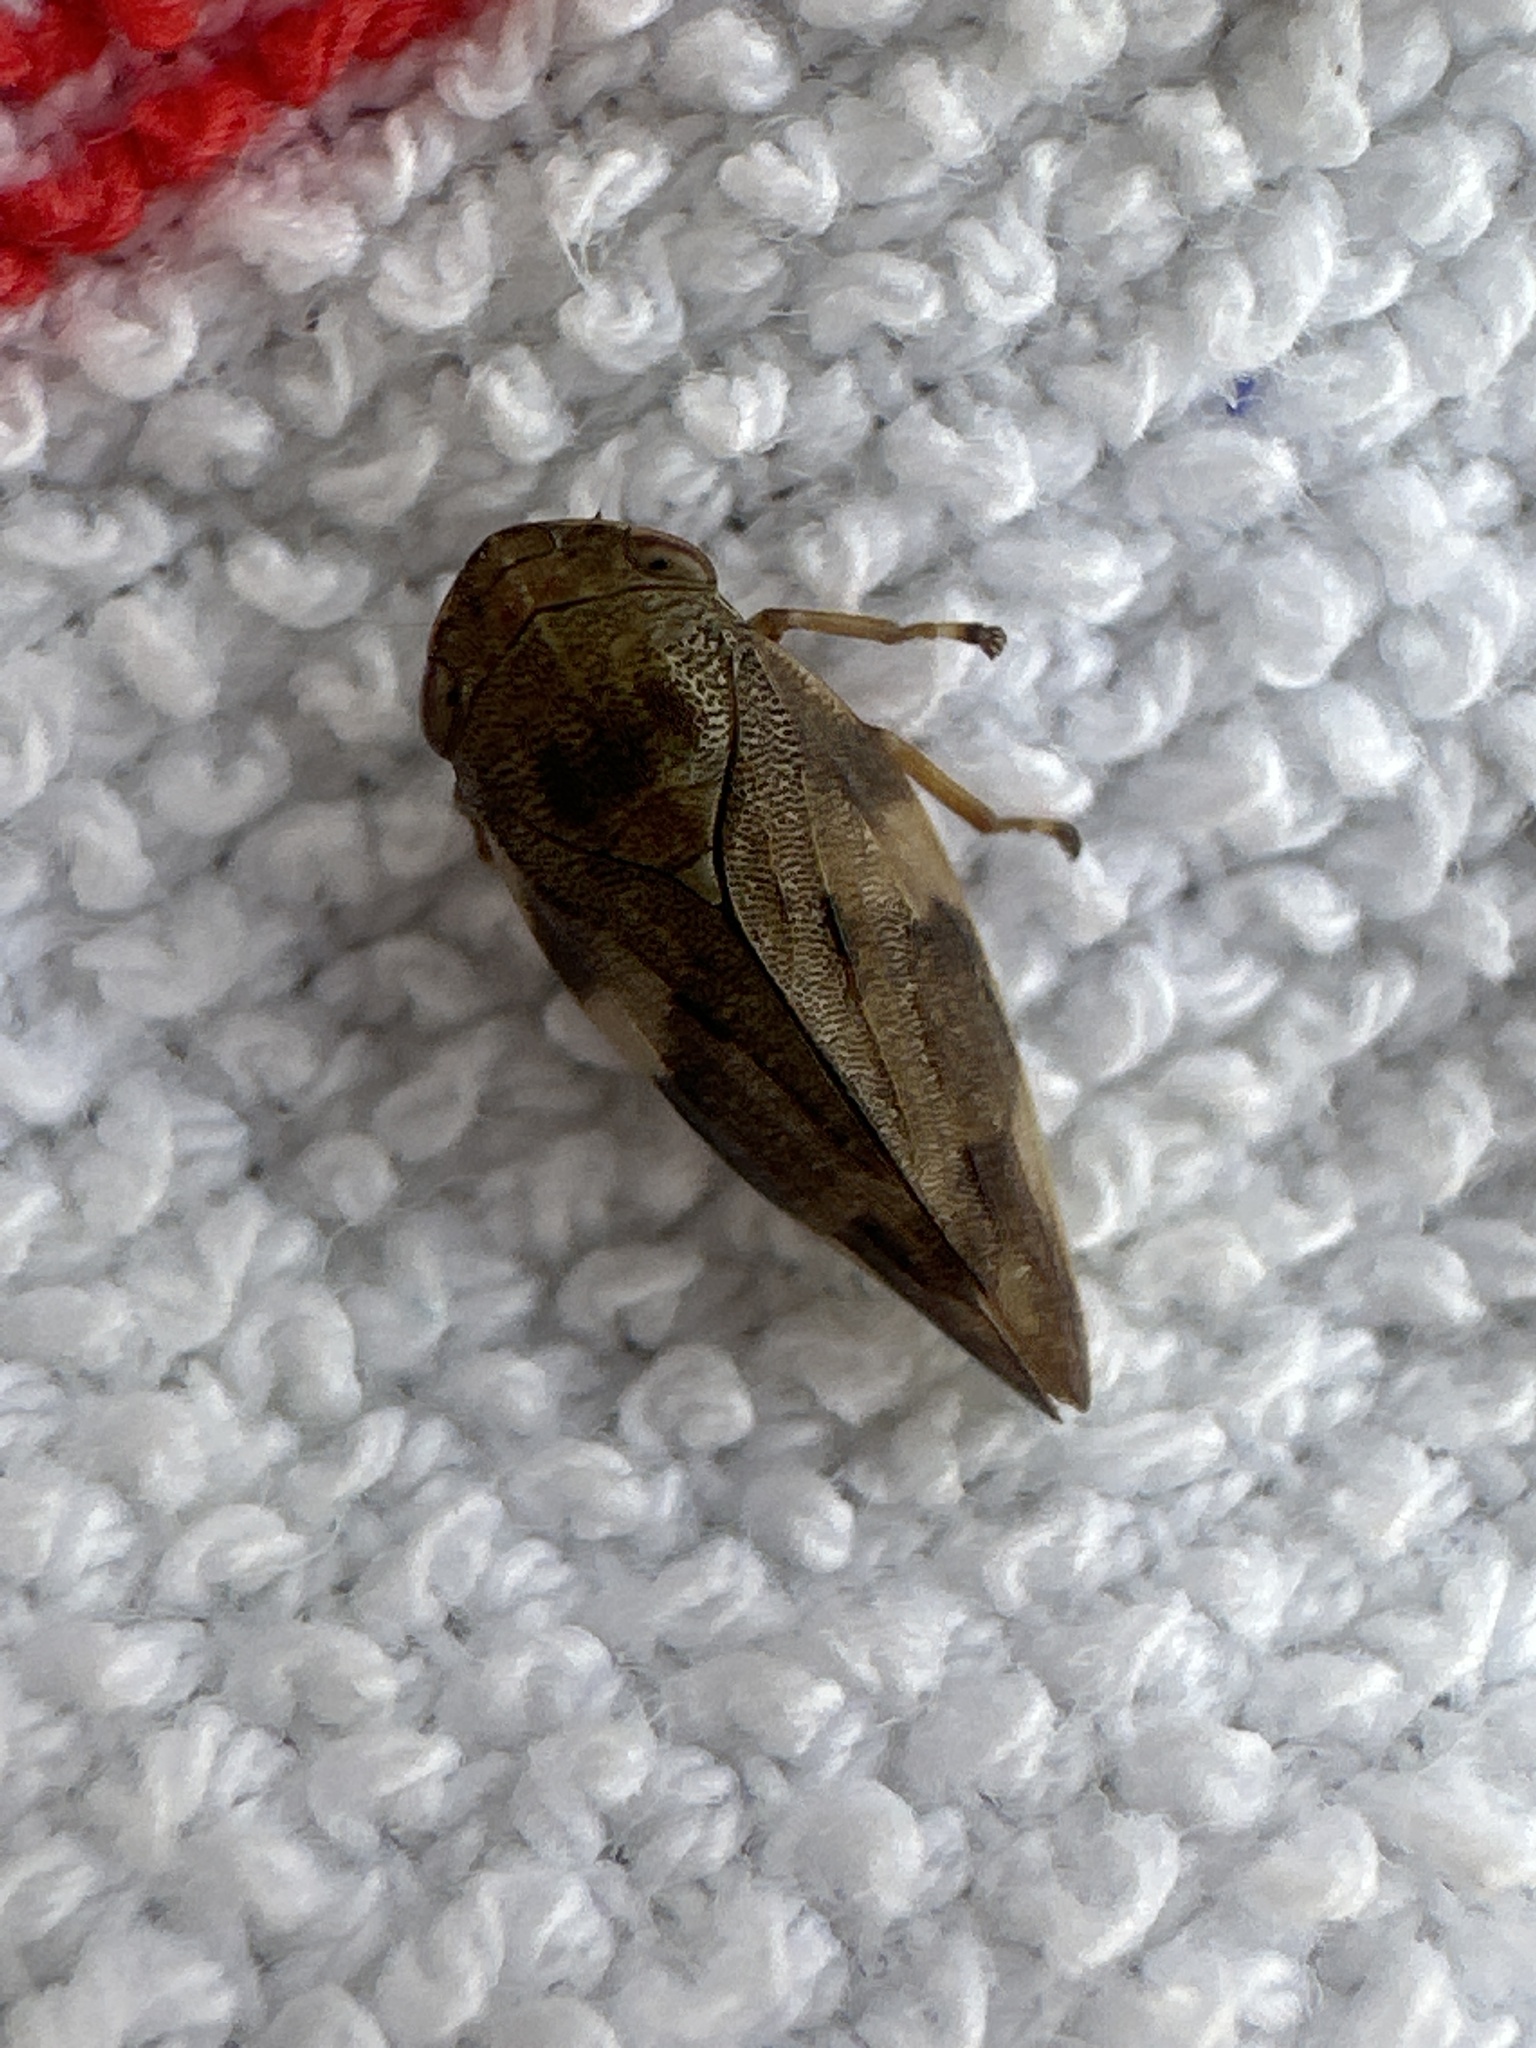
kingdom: Animalia
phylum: Arthropoda
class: Insecta
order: Hemiptera
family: Aphrophoridae
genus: Aphrophora
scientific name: Aphrophora alni
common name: European alder spittlebug
